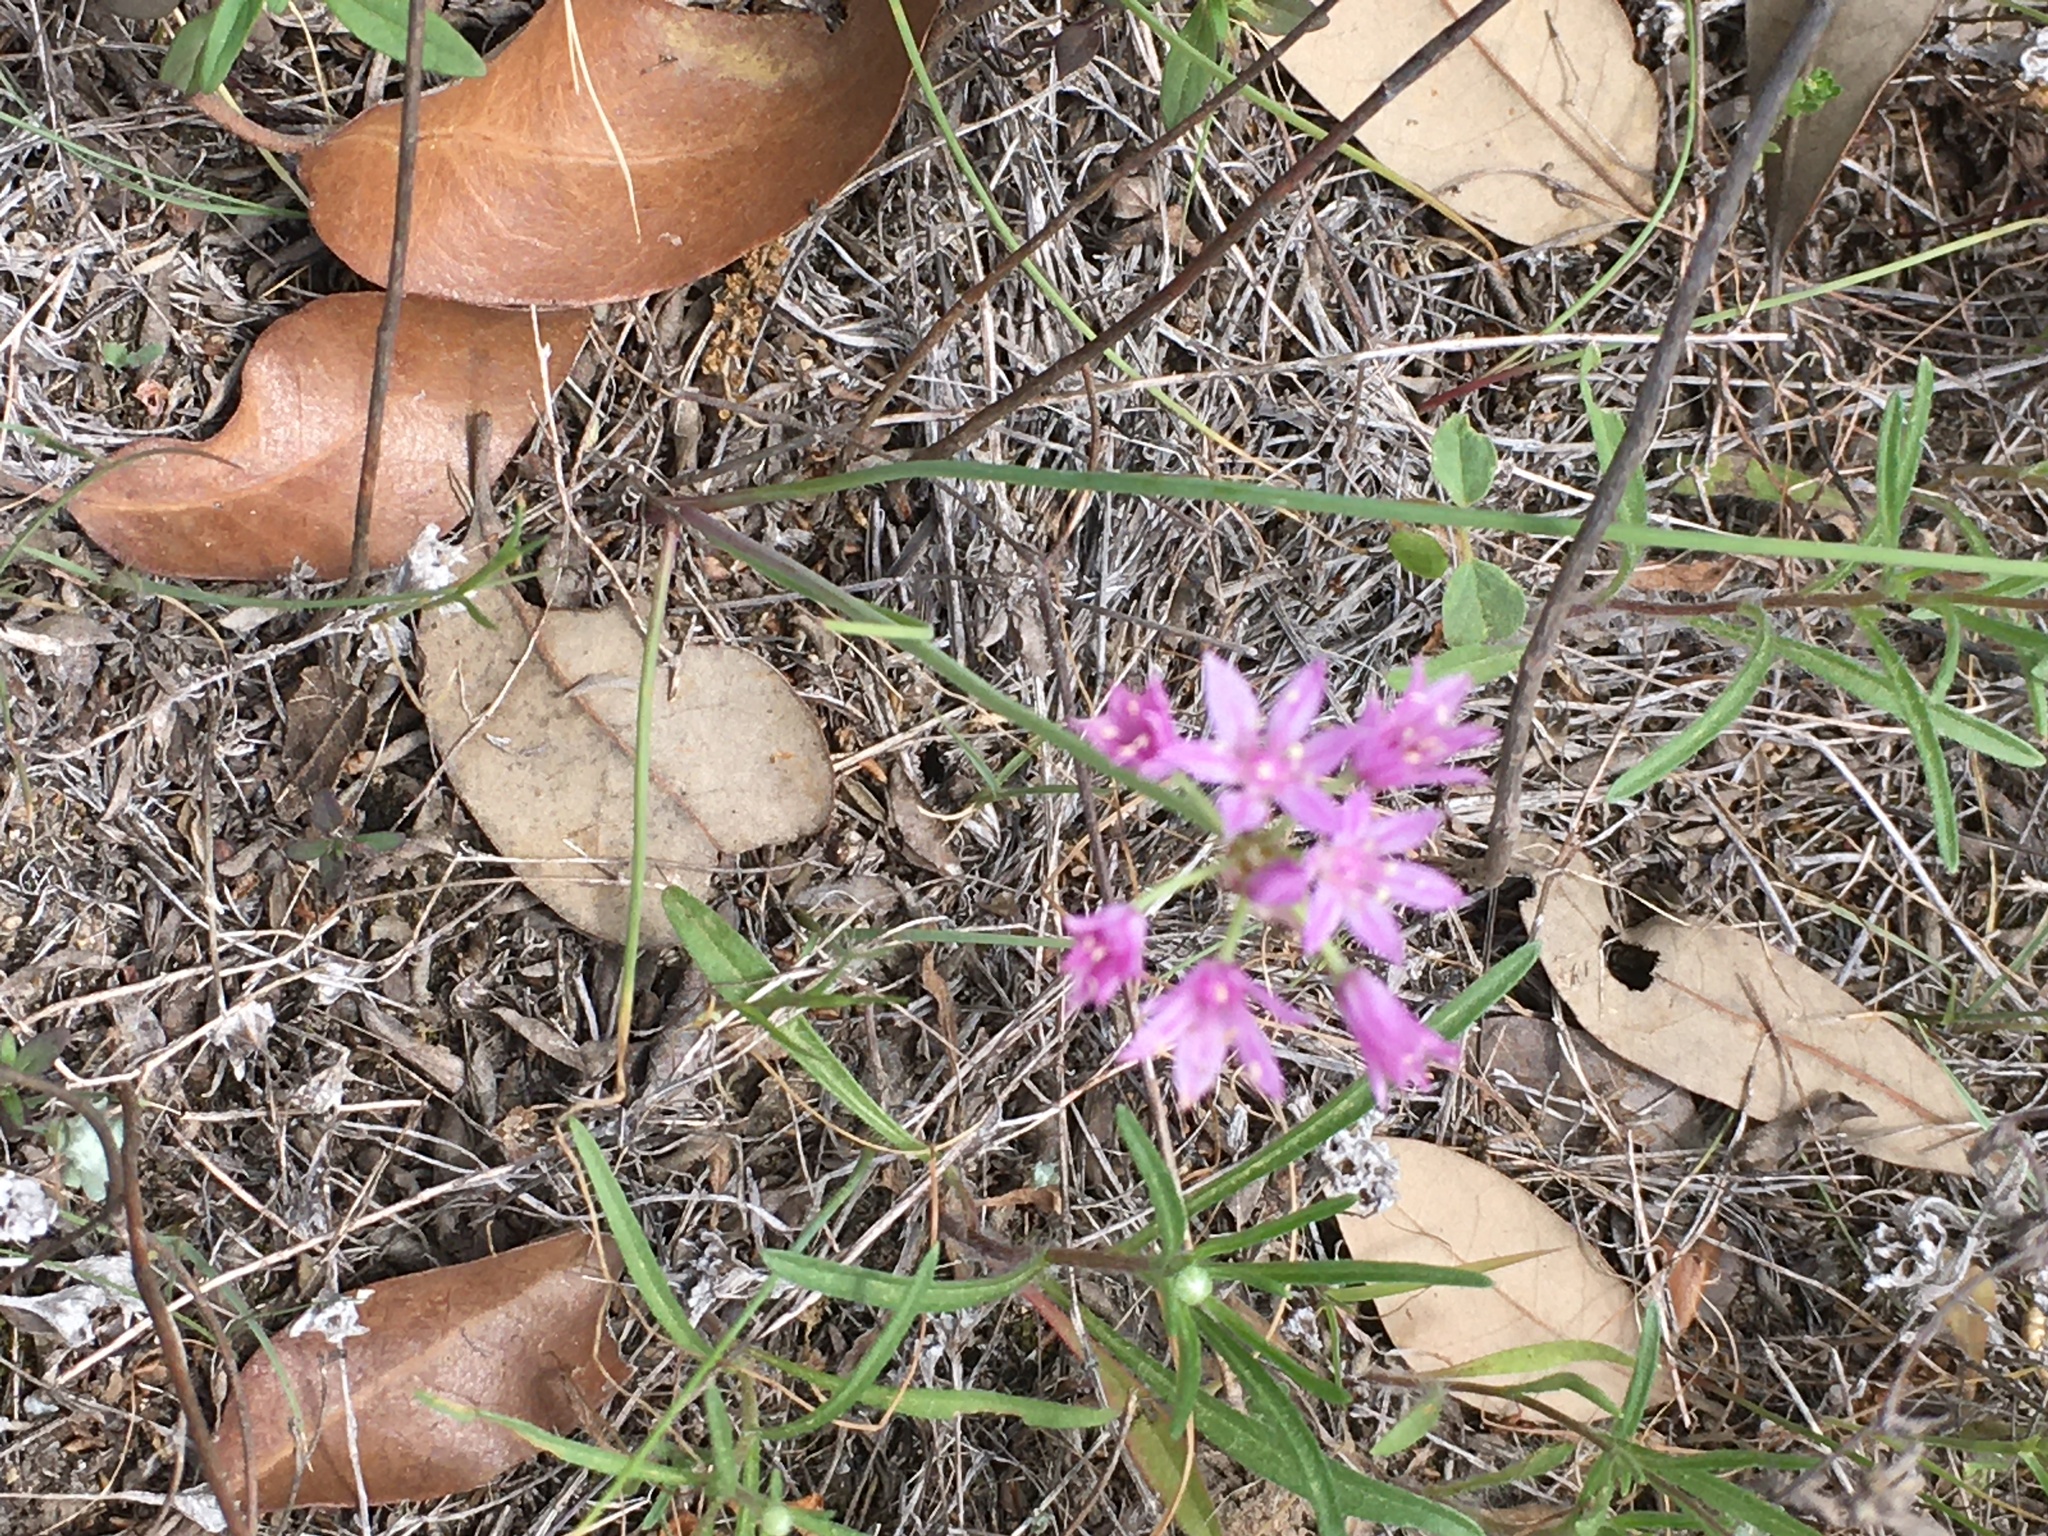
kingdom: Plantae
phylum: Tracheophyta
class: Liliopsida
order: Asparagales
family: Amaryllidaceae
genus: Allium
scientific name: Allium drummondii
